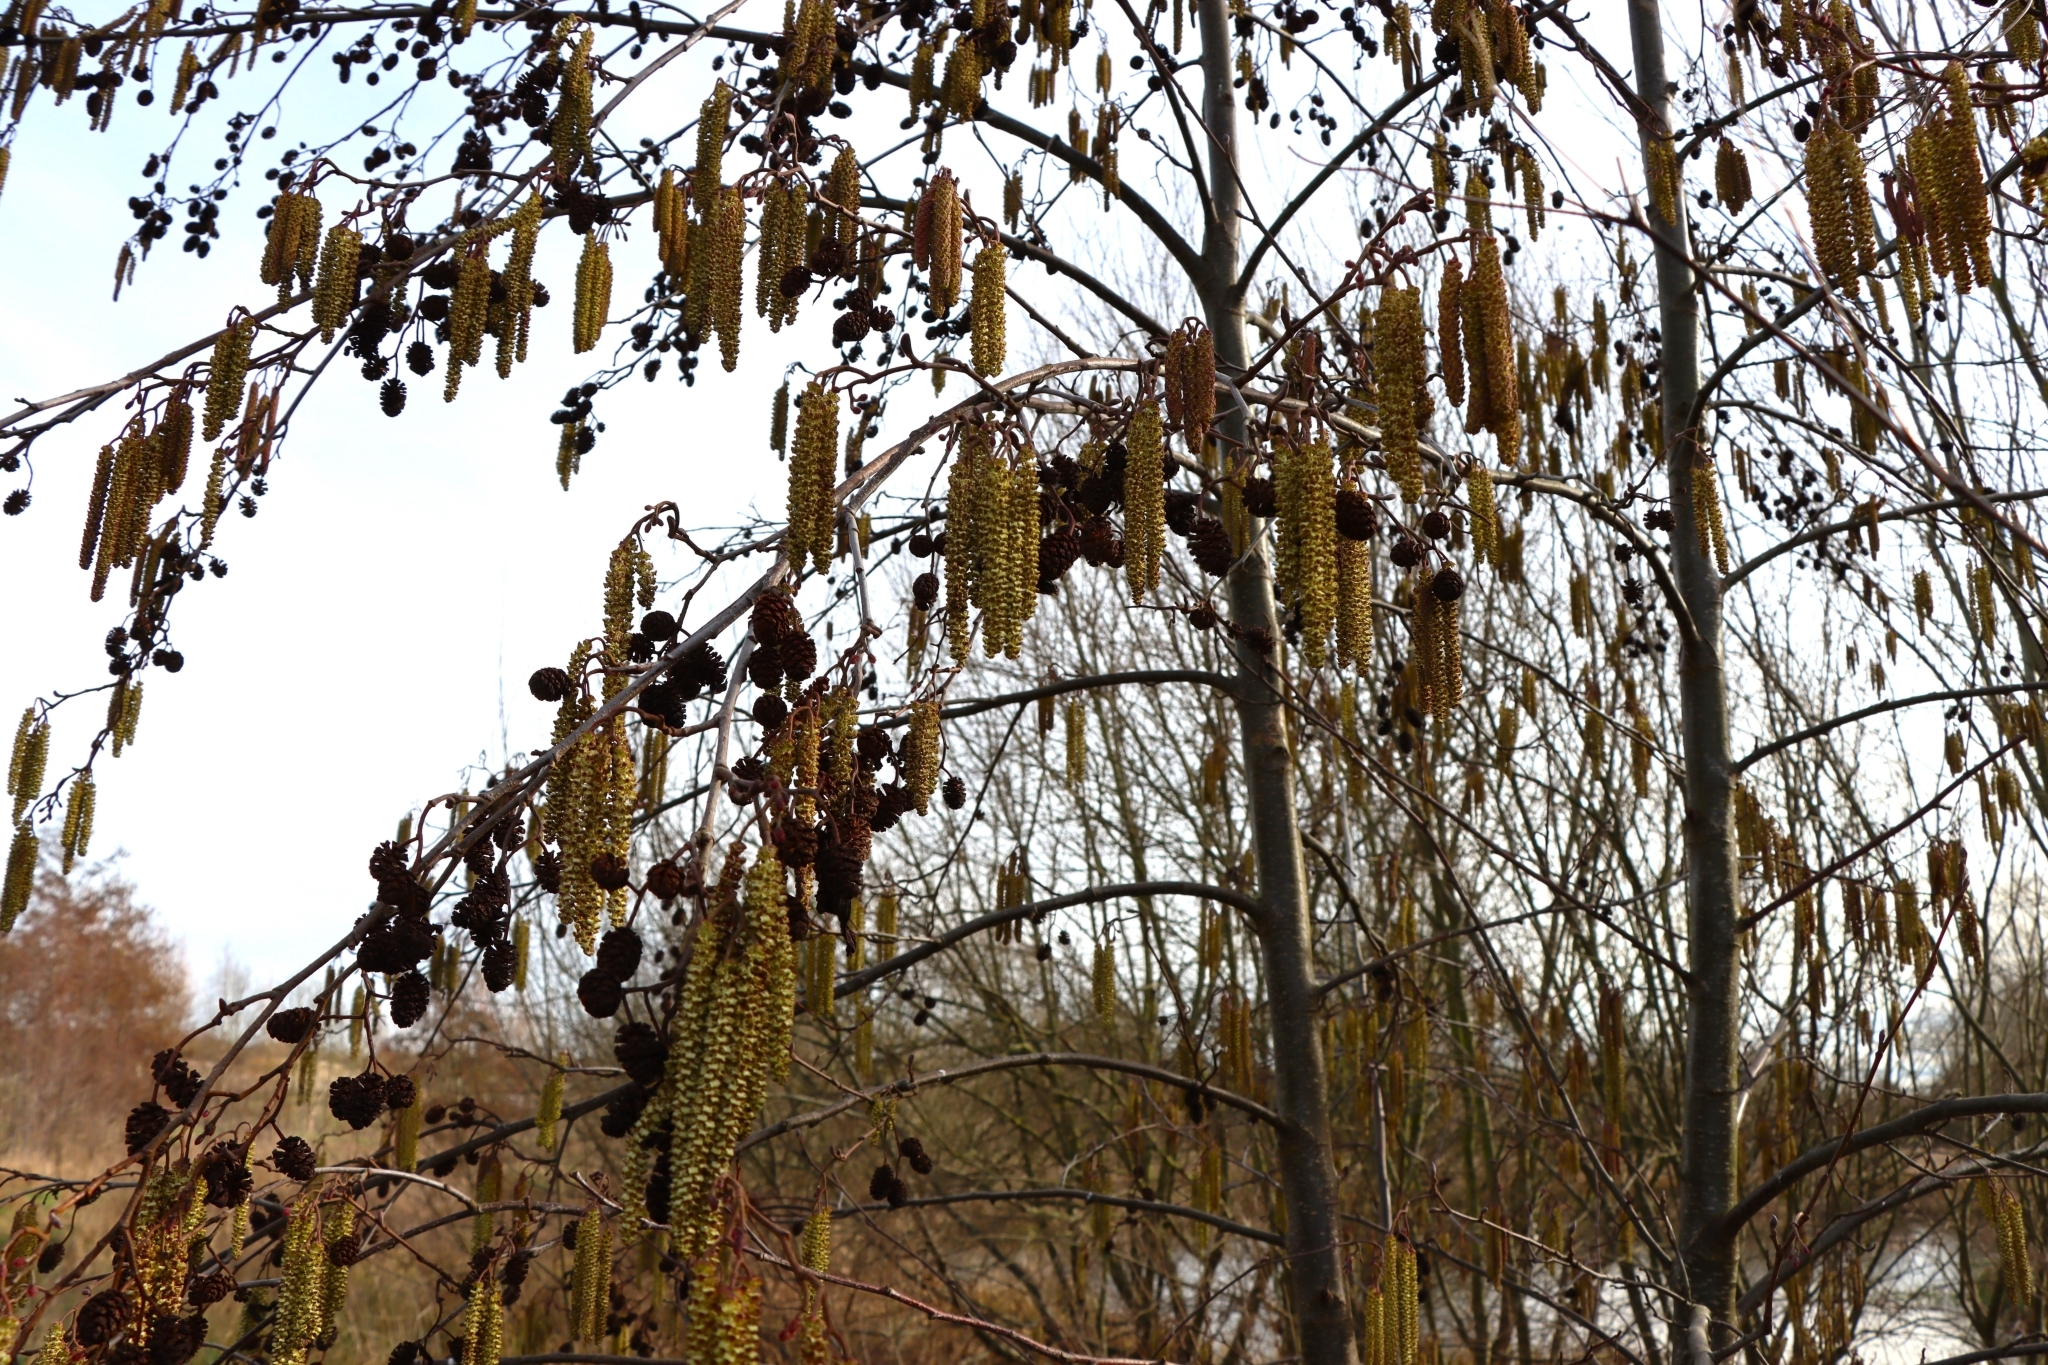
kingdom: Plantae
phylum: Tracheophyta
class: Magnoliopsida
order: Fagales
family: Betulaceae
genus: Alnus
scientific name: Alnus glutinosa
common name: Black alder
